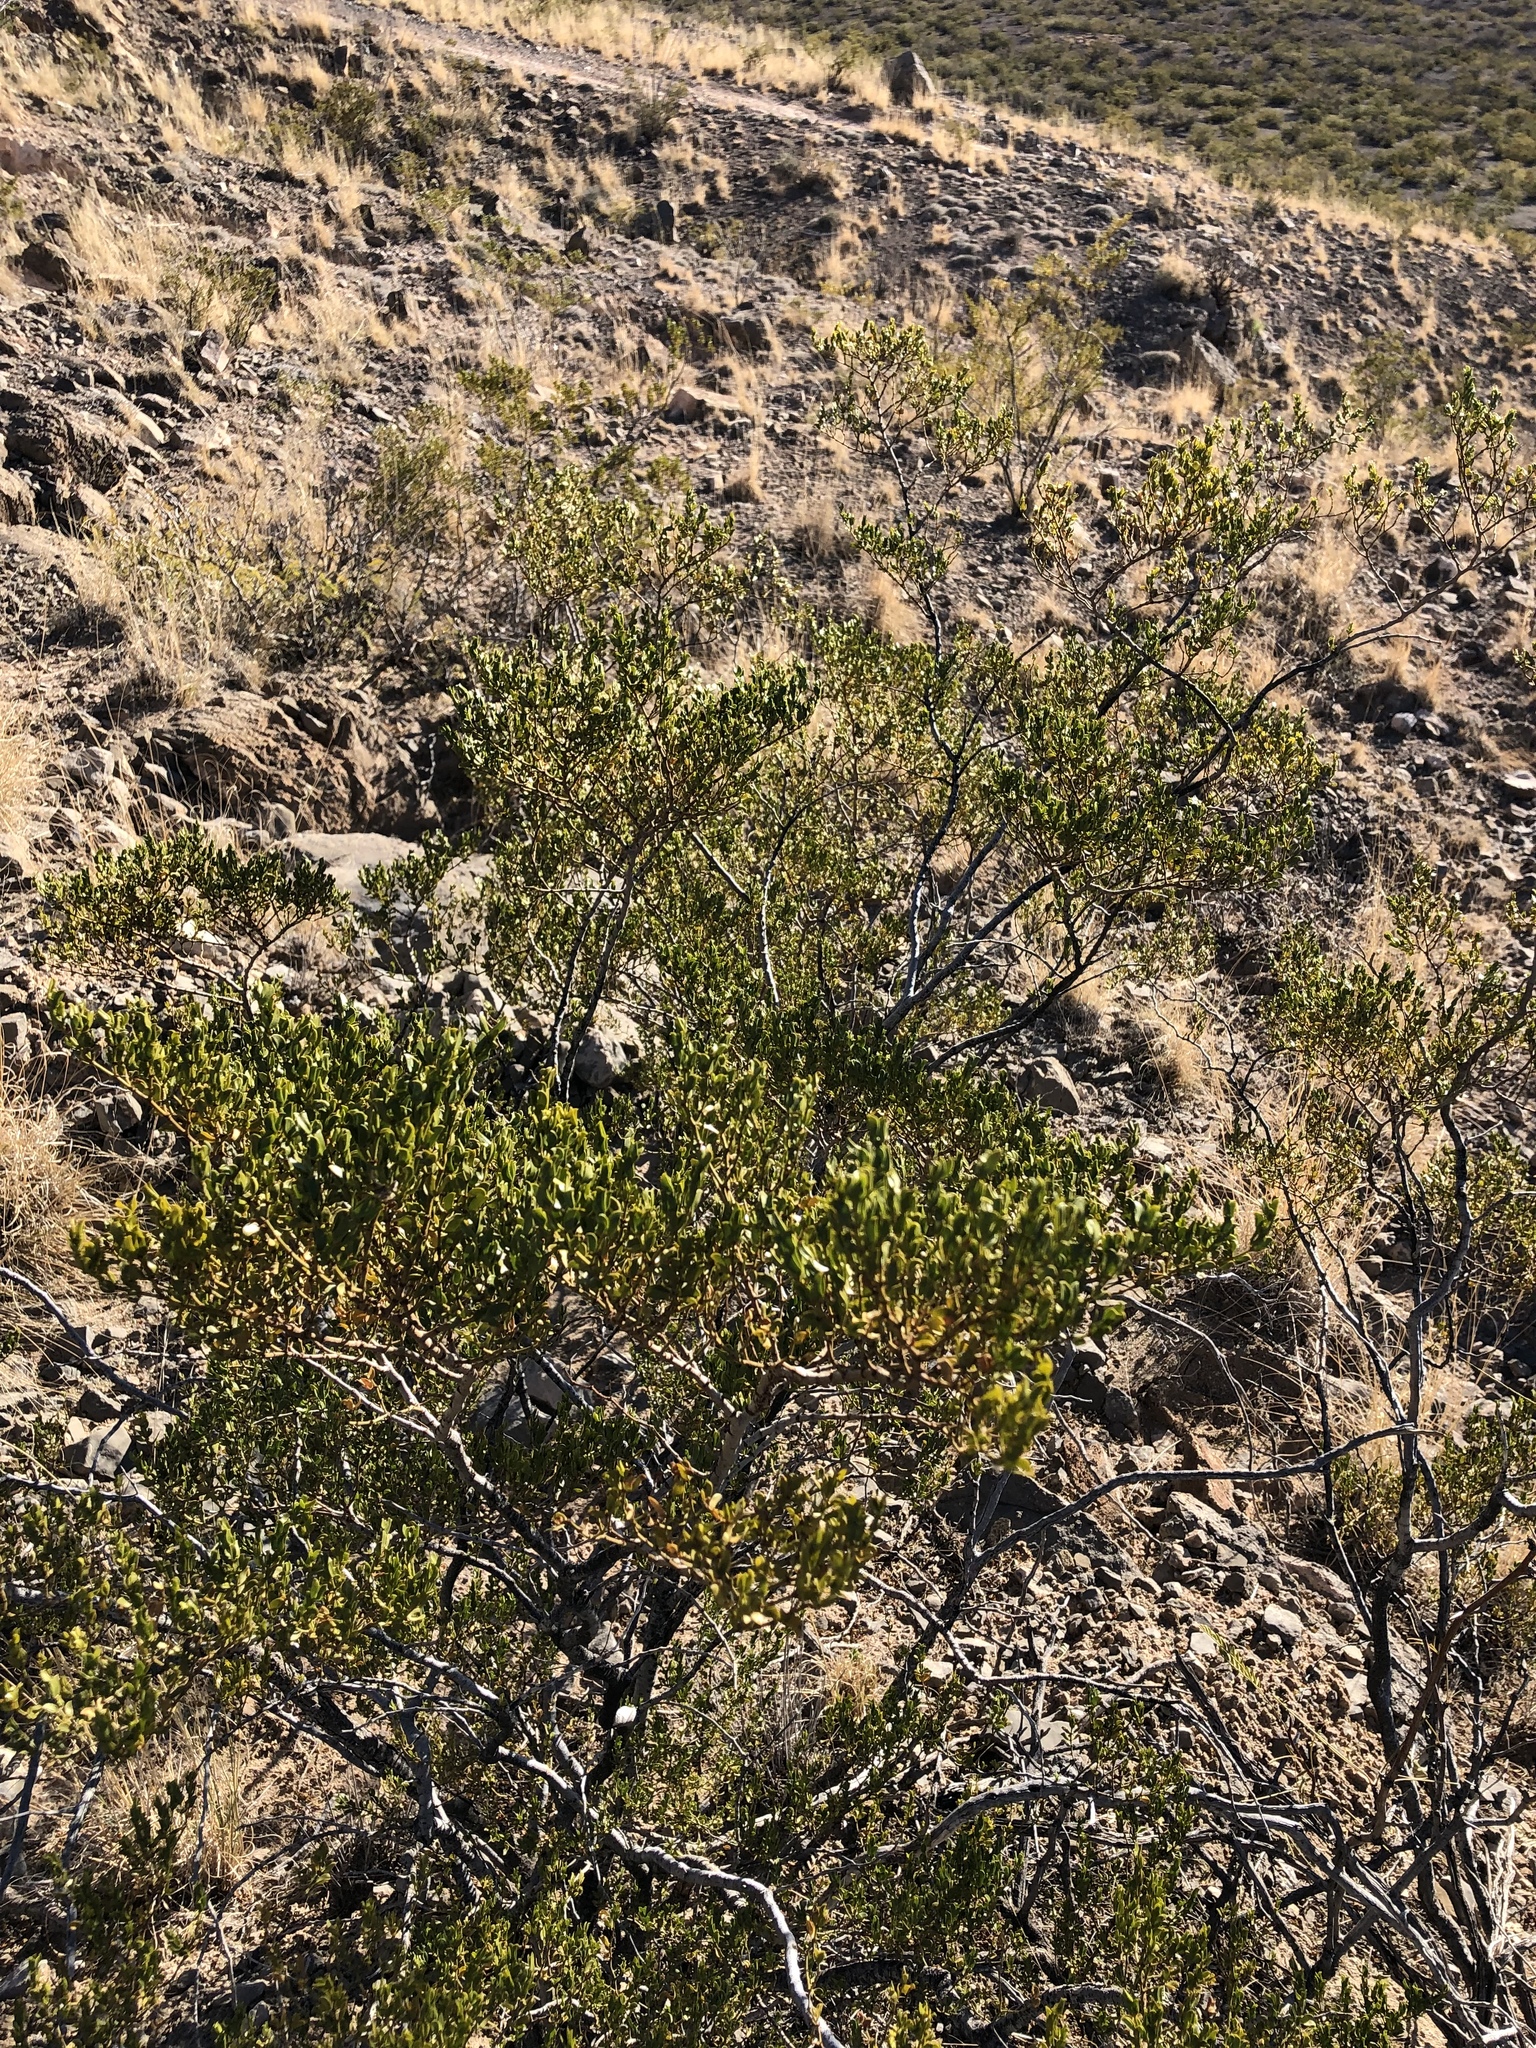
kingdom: Plantae
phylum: Tracheophyta
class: Magnoliopsida
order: Zygophyllales
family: Zygophyllaceae
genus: Larrea
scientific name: Larrea tridentata
